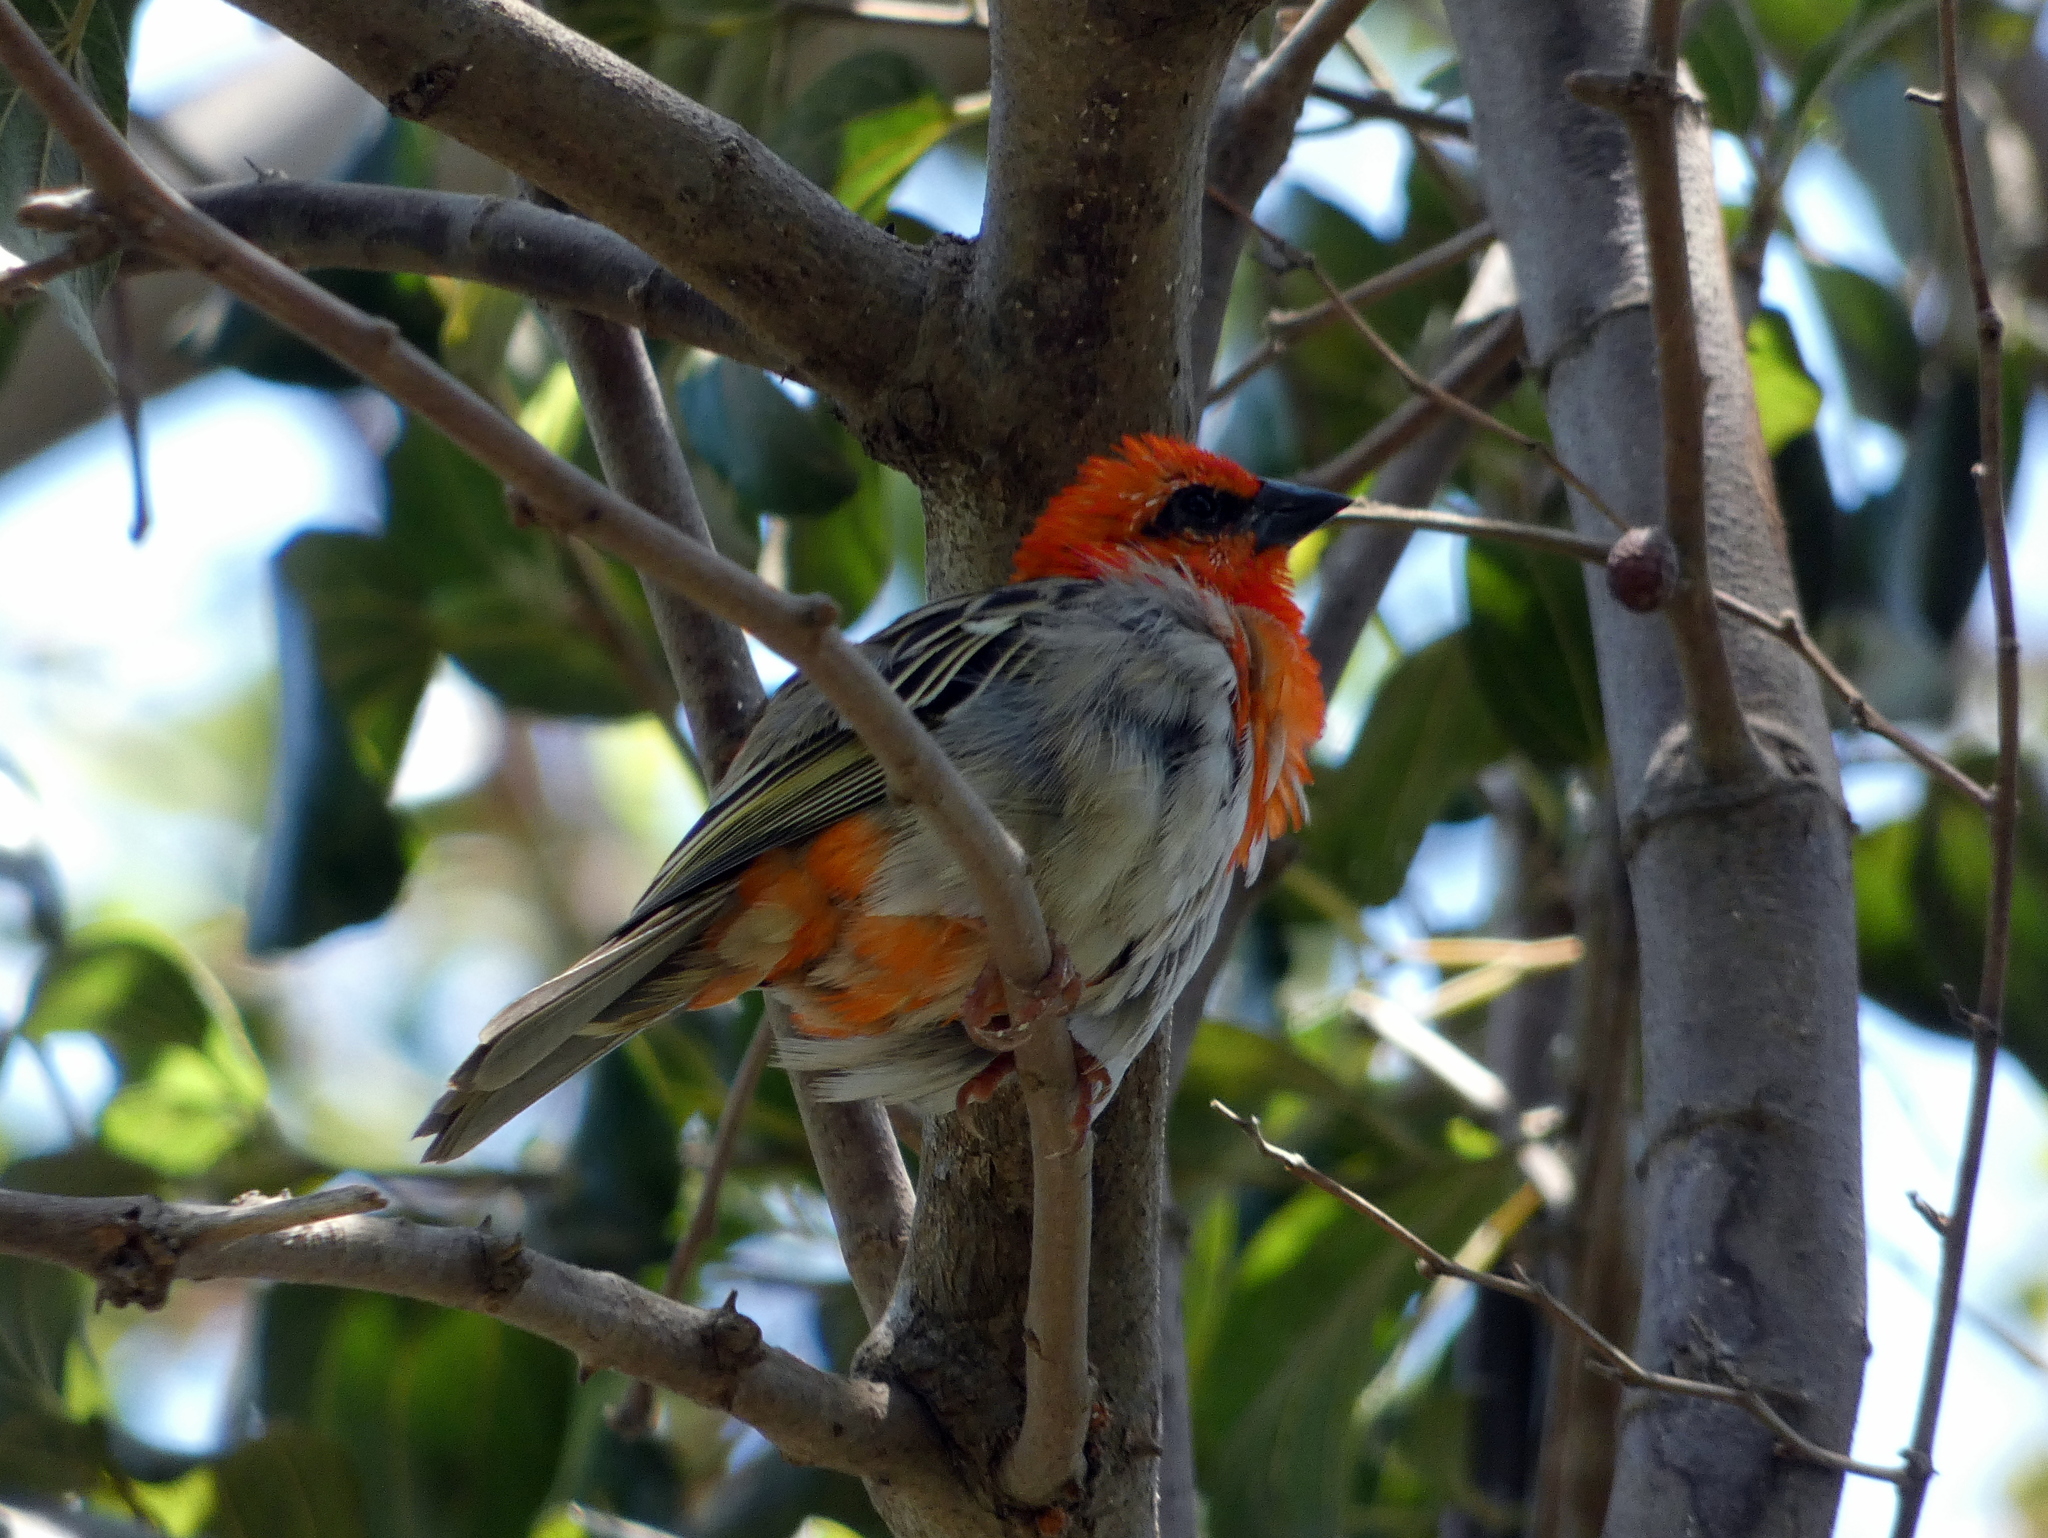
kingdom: Animalia
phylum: Chordata
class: Aves
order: Passeriformes
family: Ploceidae
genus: Foudia
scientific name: Foudia madagascariensis
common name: Red fody
